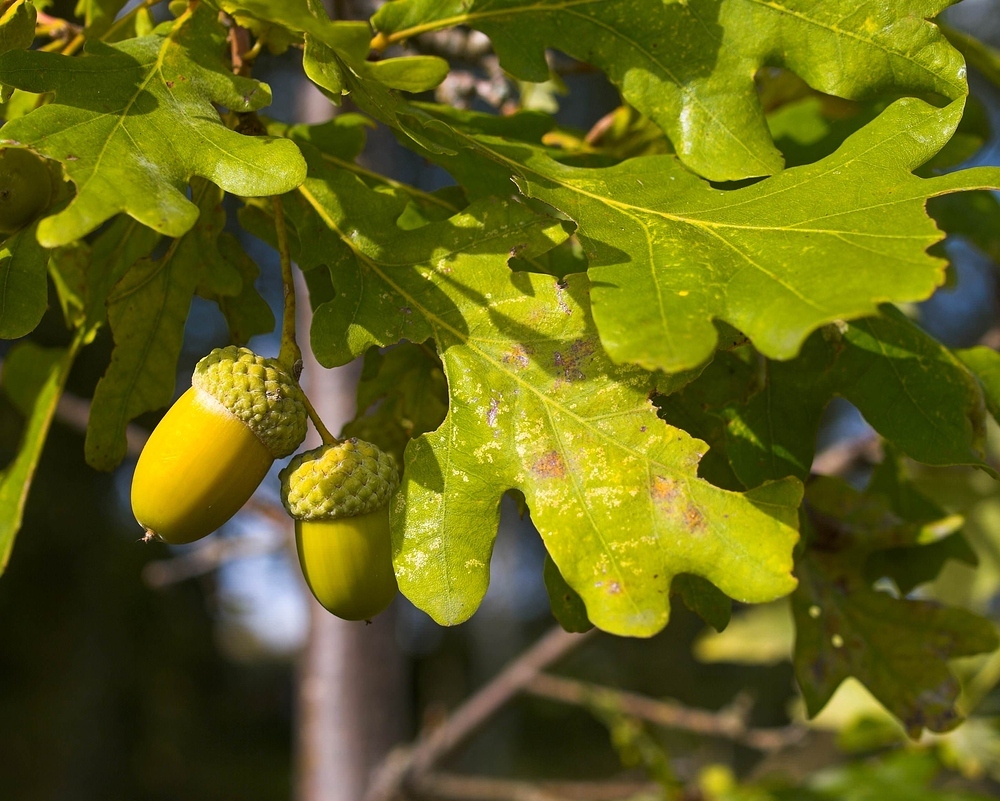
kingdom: Plantae
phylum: Tracheophyta
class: Magnoliopsida
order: Fagales
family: Fagaceae
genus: Quercus
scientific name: Quercus robur
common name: Pedunculate oak
